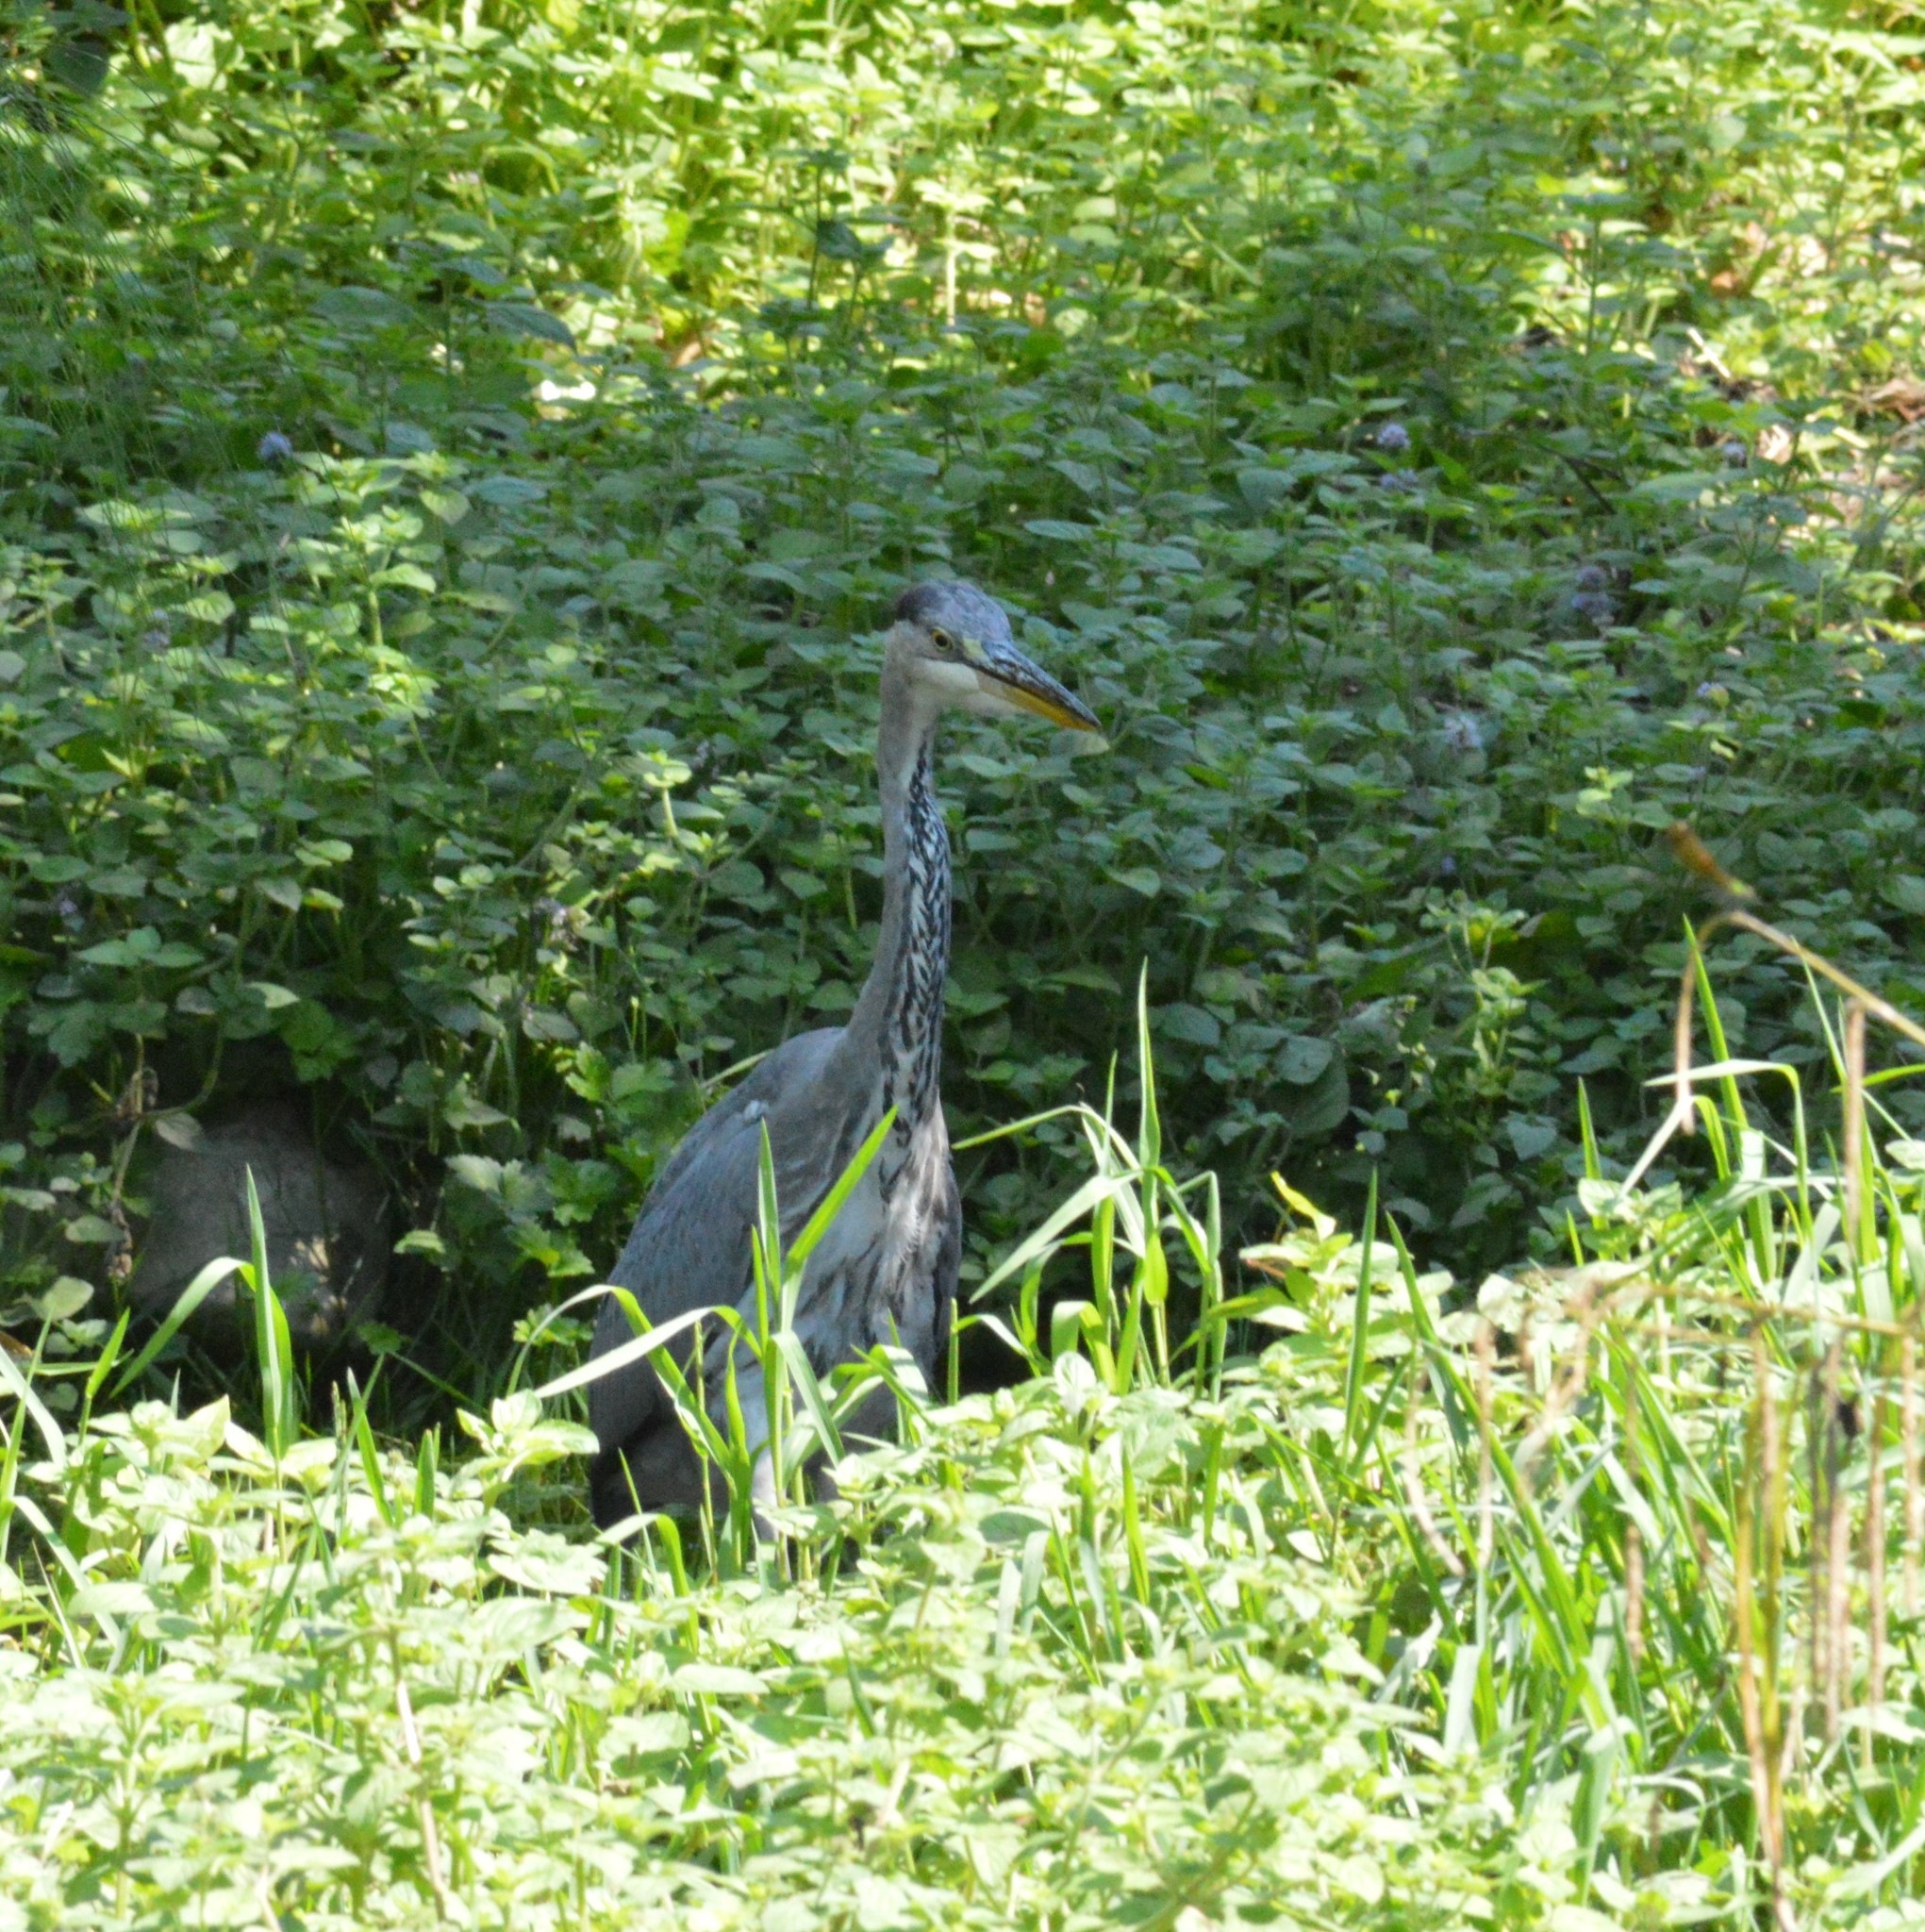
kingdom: Animalia
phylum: Chordata
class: Aves
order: Pelecaniformes
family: Ardeidae
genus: Ardea
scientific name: Ardea cinerea
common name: Grey heron
